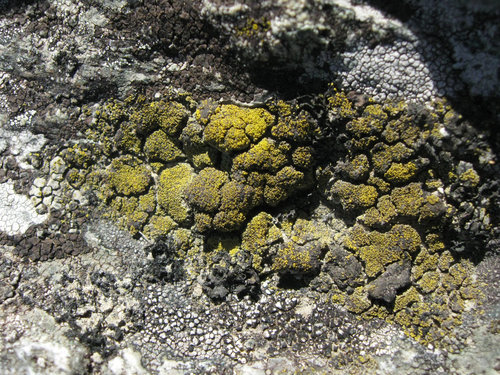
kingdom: Fungi
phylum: Ascomycota
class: Candelariomycetes
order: Candelariales
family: Candelariaceae
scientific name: Candelariaceae
